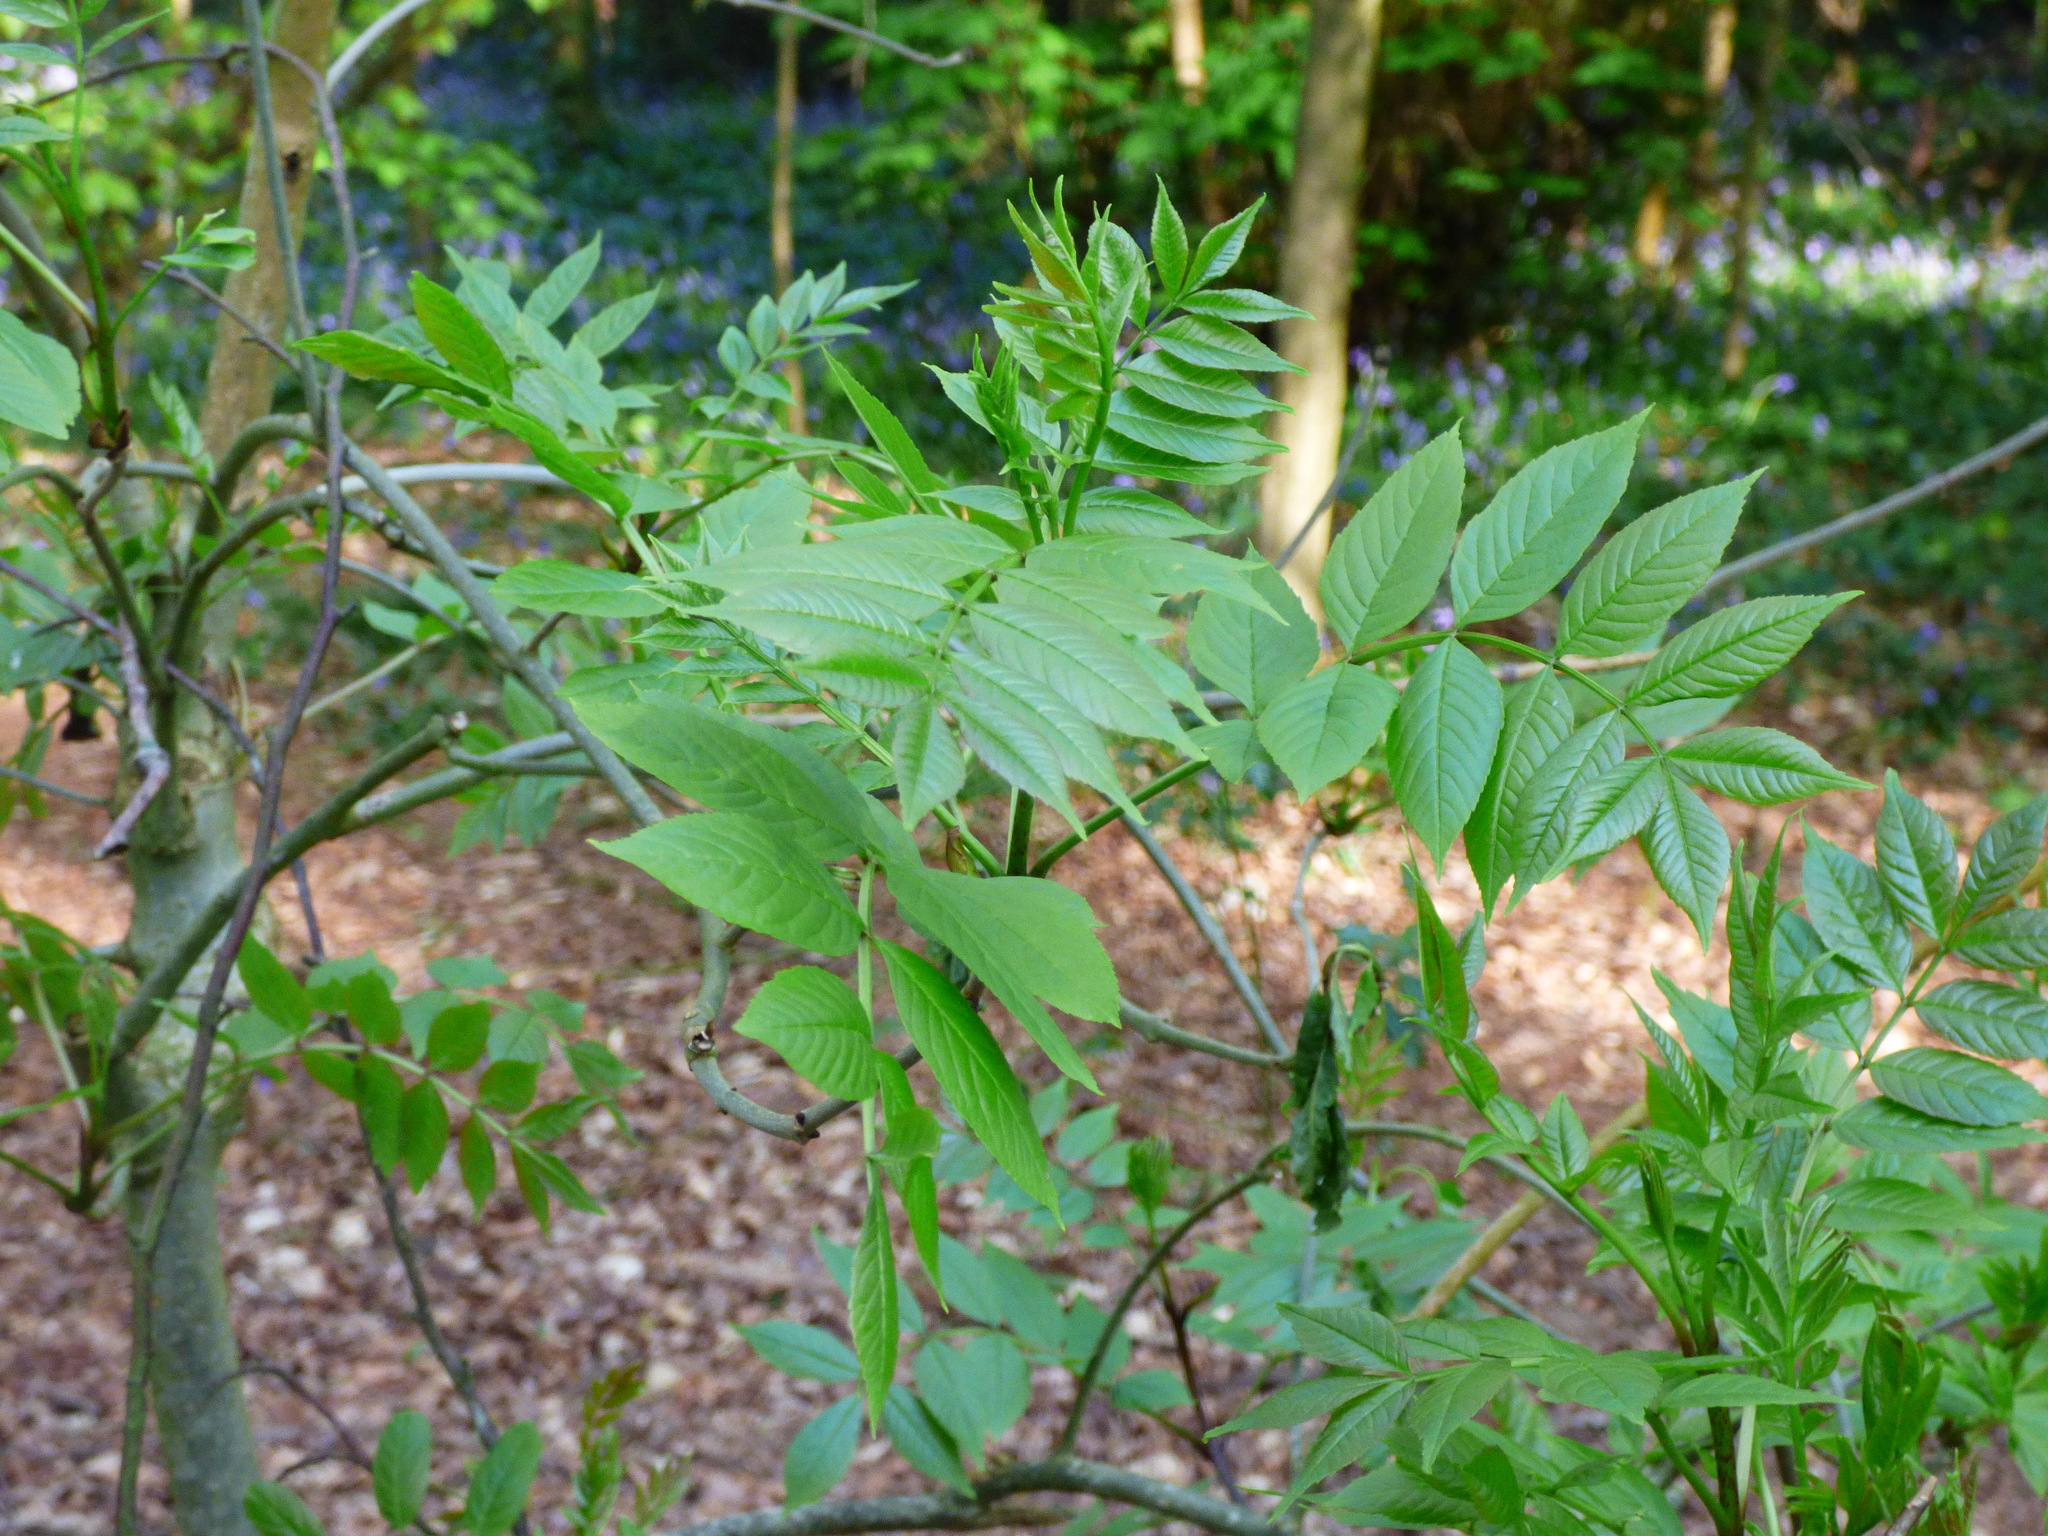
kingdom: Plantae
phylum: Tracheophyta
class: Magnoliopsida
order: Lamiales
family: Oleaceae
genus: Fraxinus
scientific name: Fraxinus excelsior
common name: European ash
